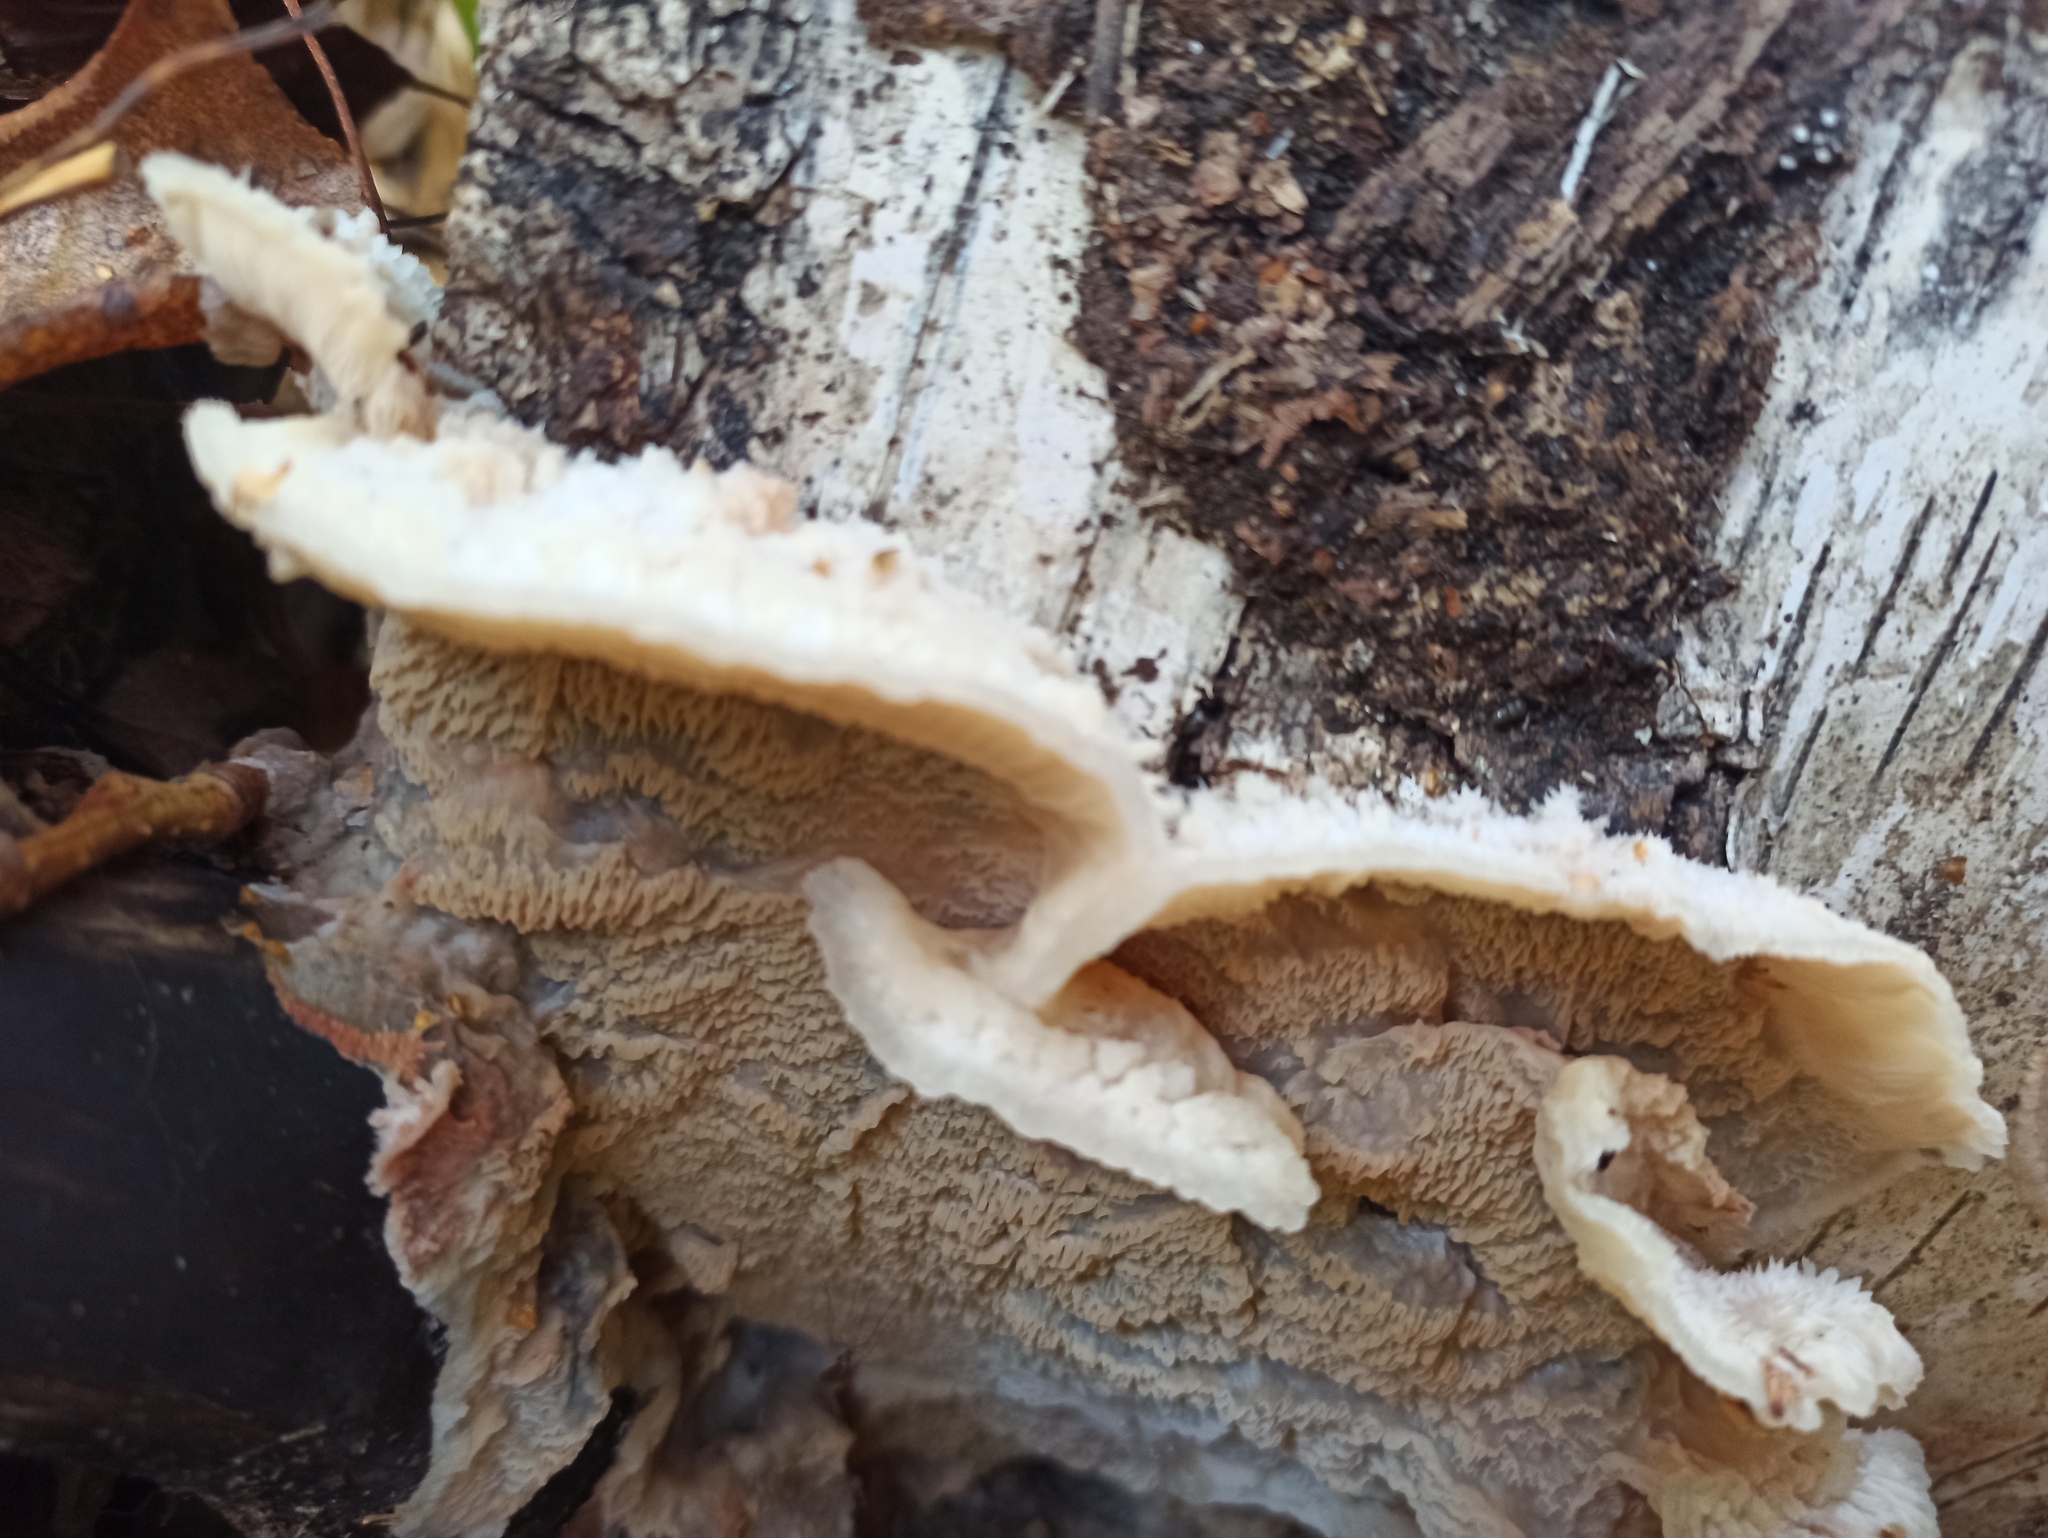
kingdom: Fungi
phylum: Basidiomycota
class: Agaricomycetes
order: Polyporales
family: Meruliaceae
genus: Phlebia
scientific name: Phlebia tremellosa
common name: Jelly rot
